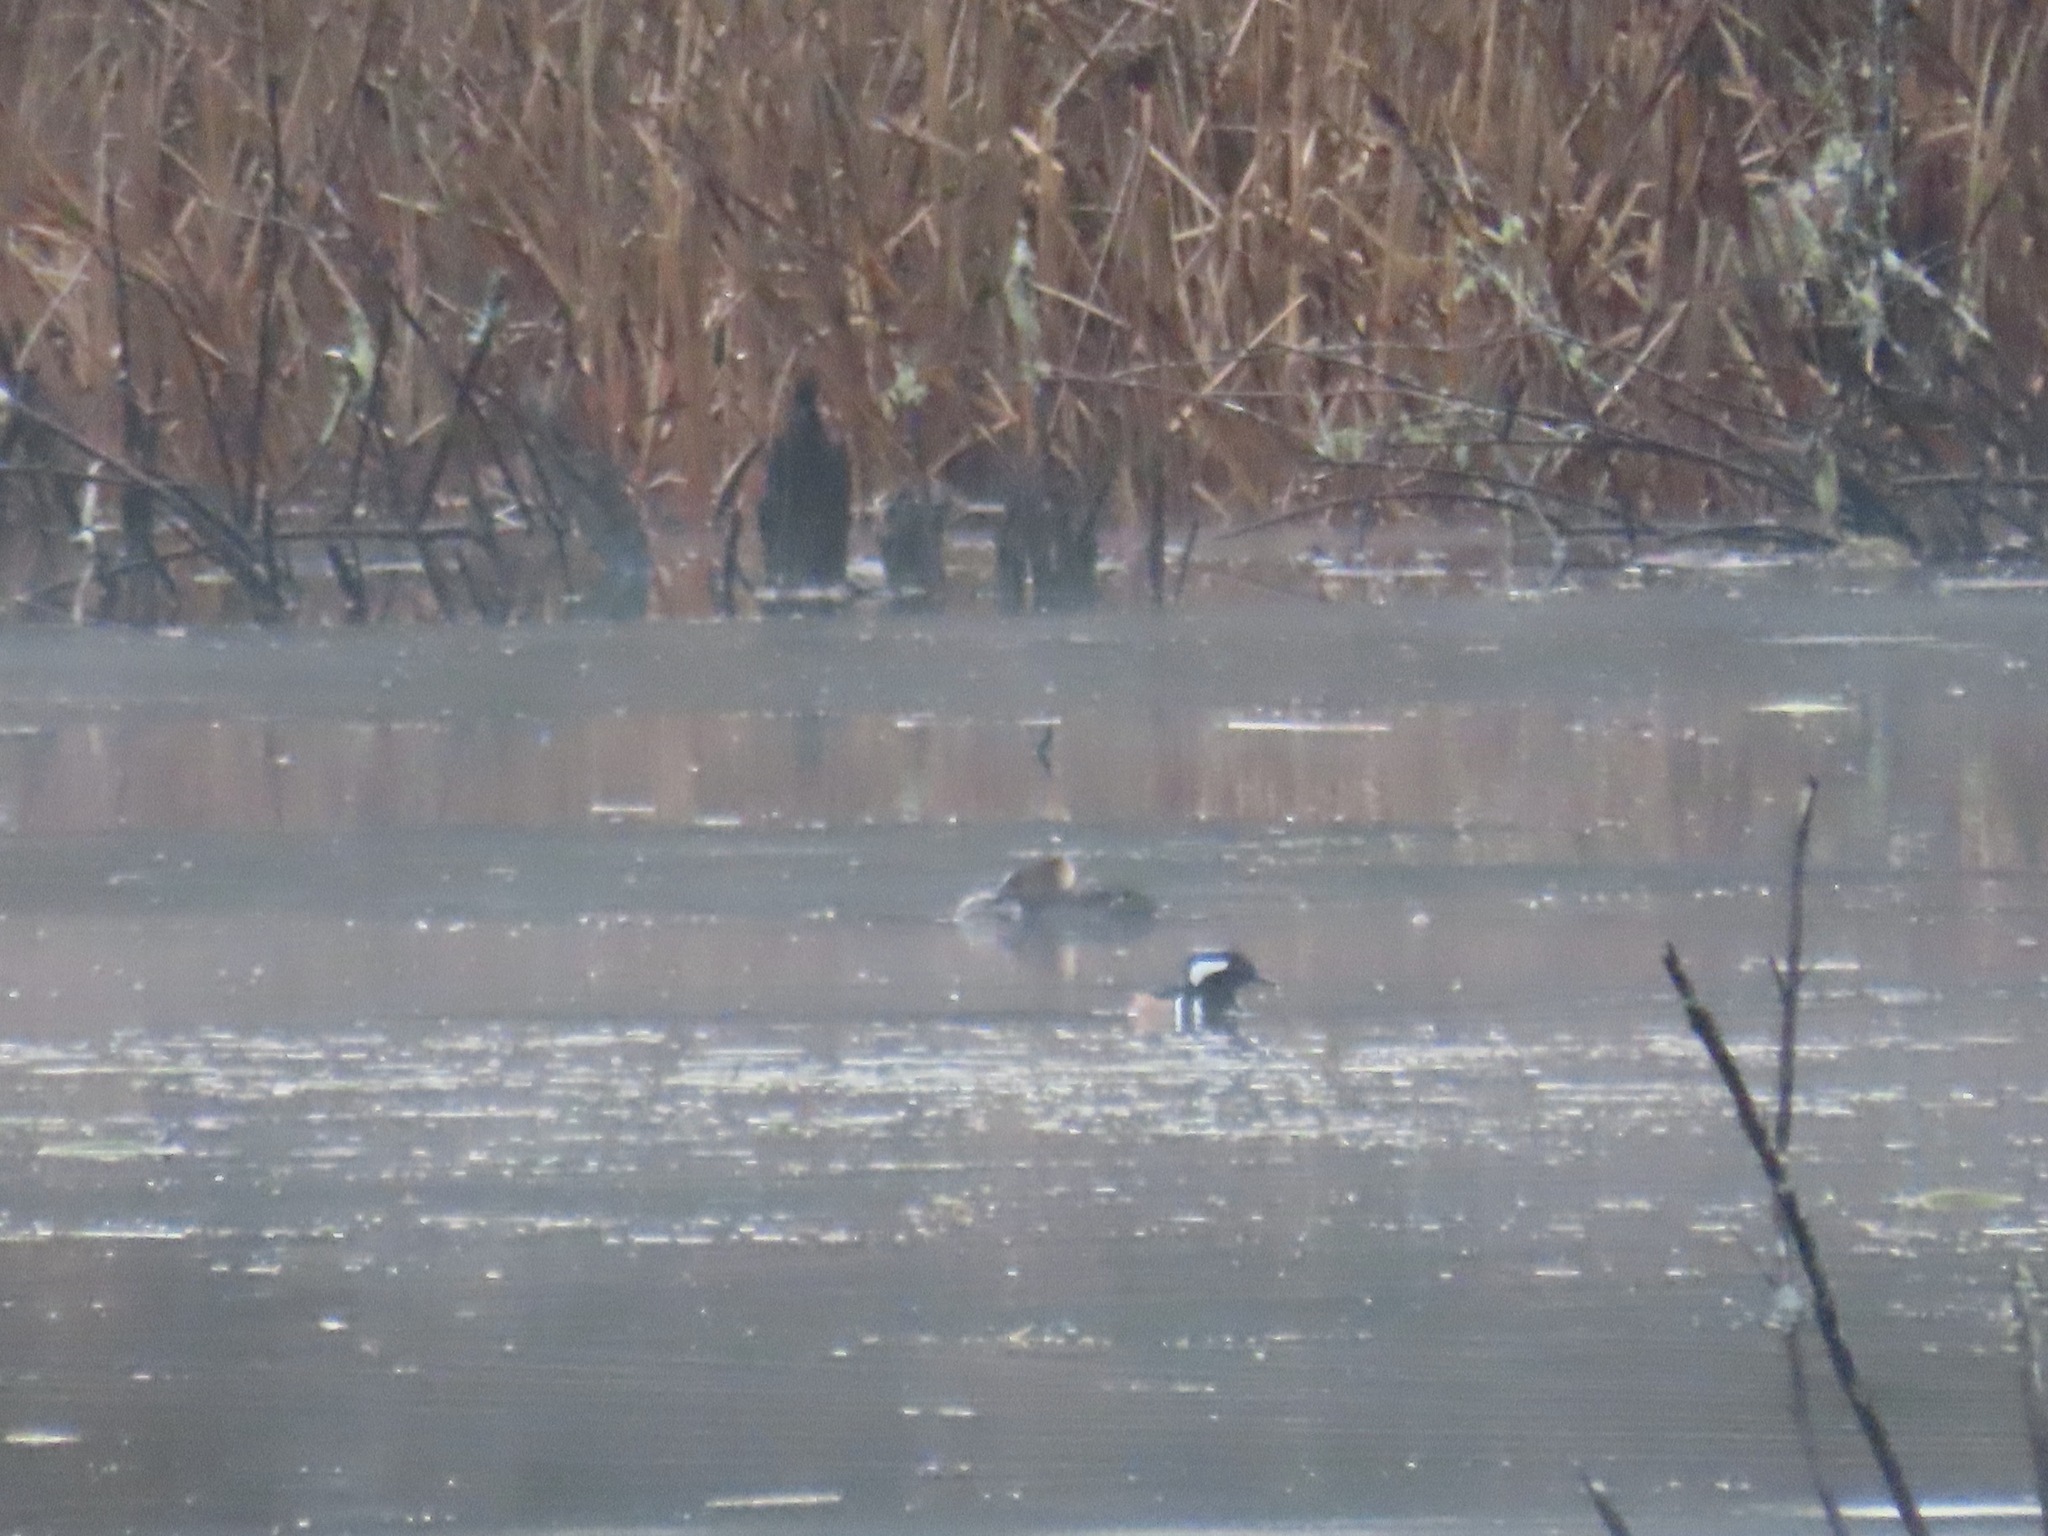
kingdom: Animalia
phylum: Chordata
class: Aves
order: Anseriformes
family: Anatidae
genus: Lophodytes
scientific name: Lophodytes cucullatus
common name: Hooded merganser
